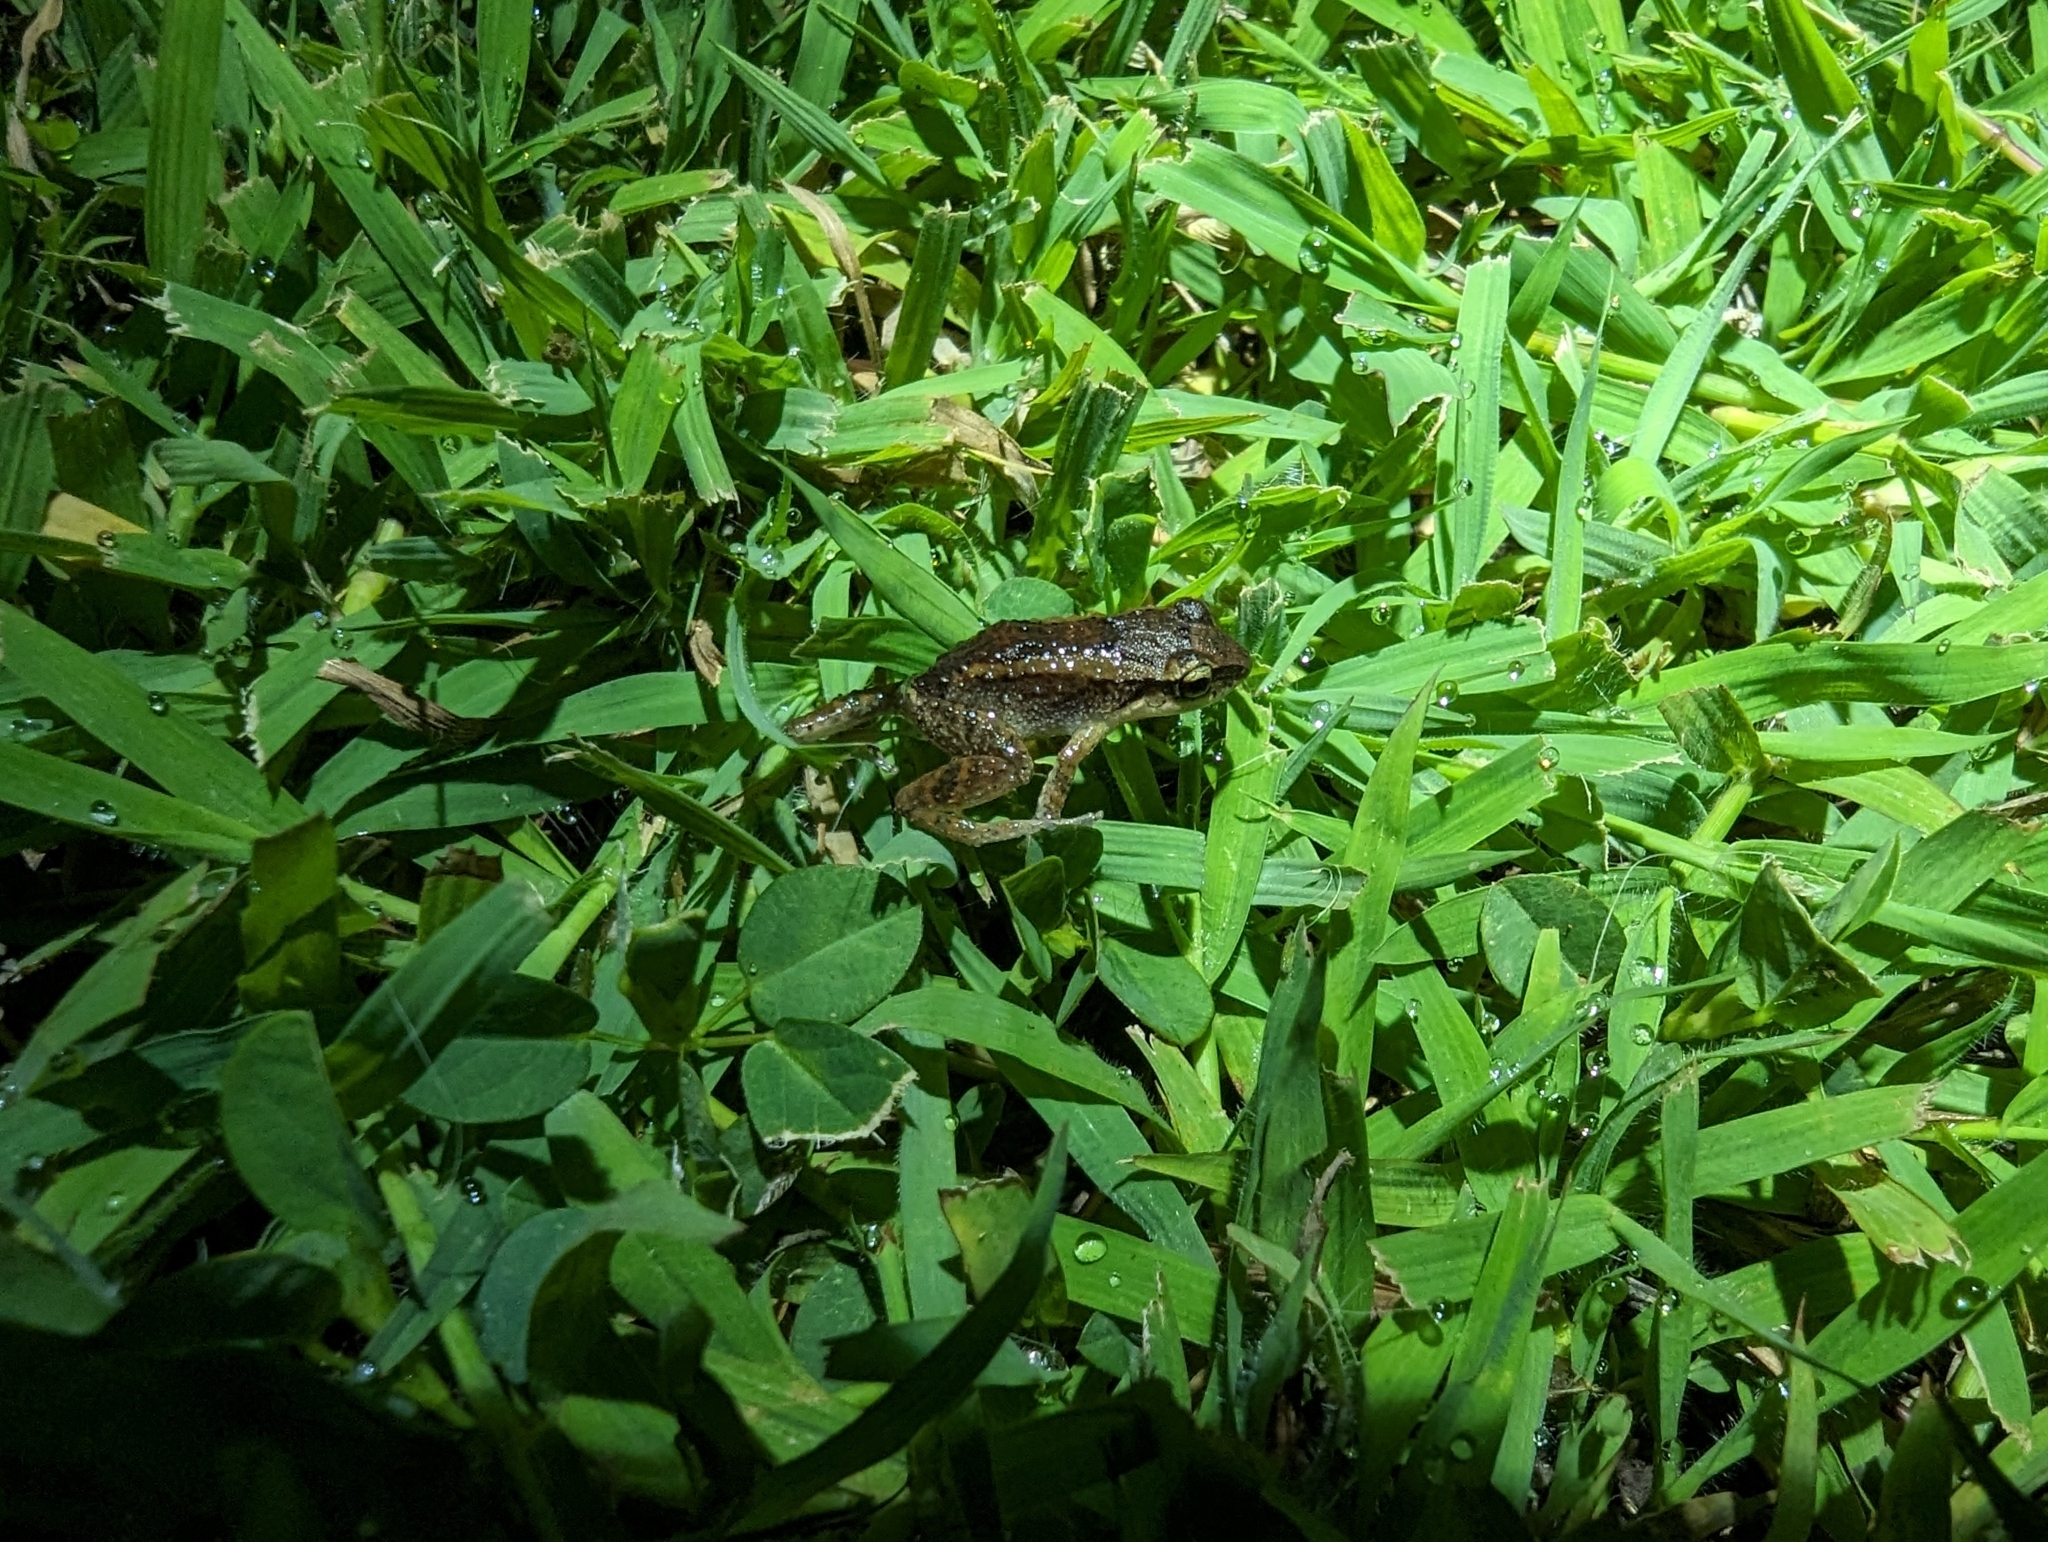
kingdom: Animalia
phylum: Chordata
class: Amphibia
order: Anura
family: Eleutherodactylidae
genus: Eleutherodactylus
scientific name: Eleutherodactylus johnstonei
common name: Johnstone's robber frog
